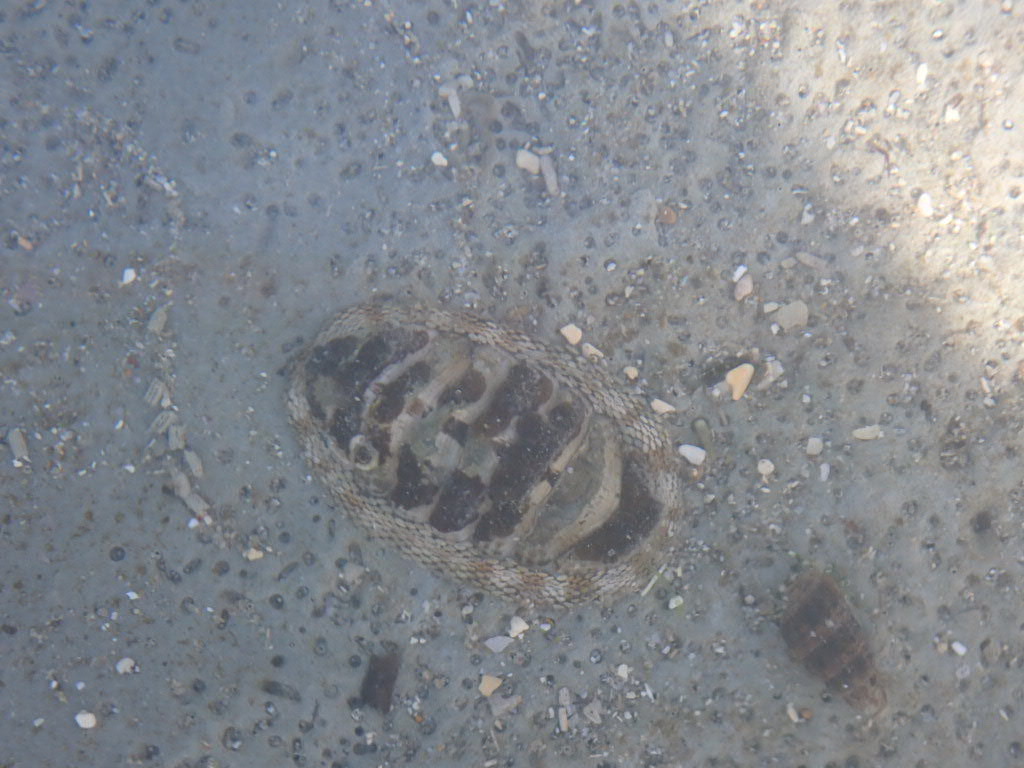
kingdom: Animalia
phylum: Mollusca
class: Polyplacophora
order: Chitonida
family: Chitonidae
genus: Sypharochiton
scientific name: Sypharochiton pelliserpentis
